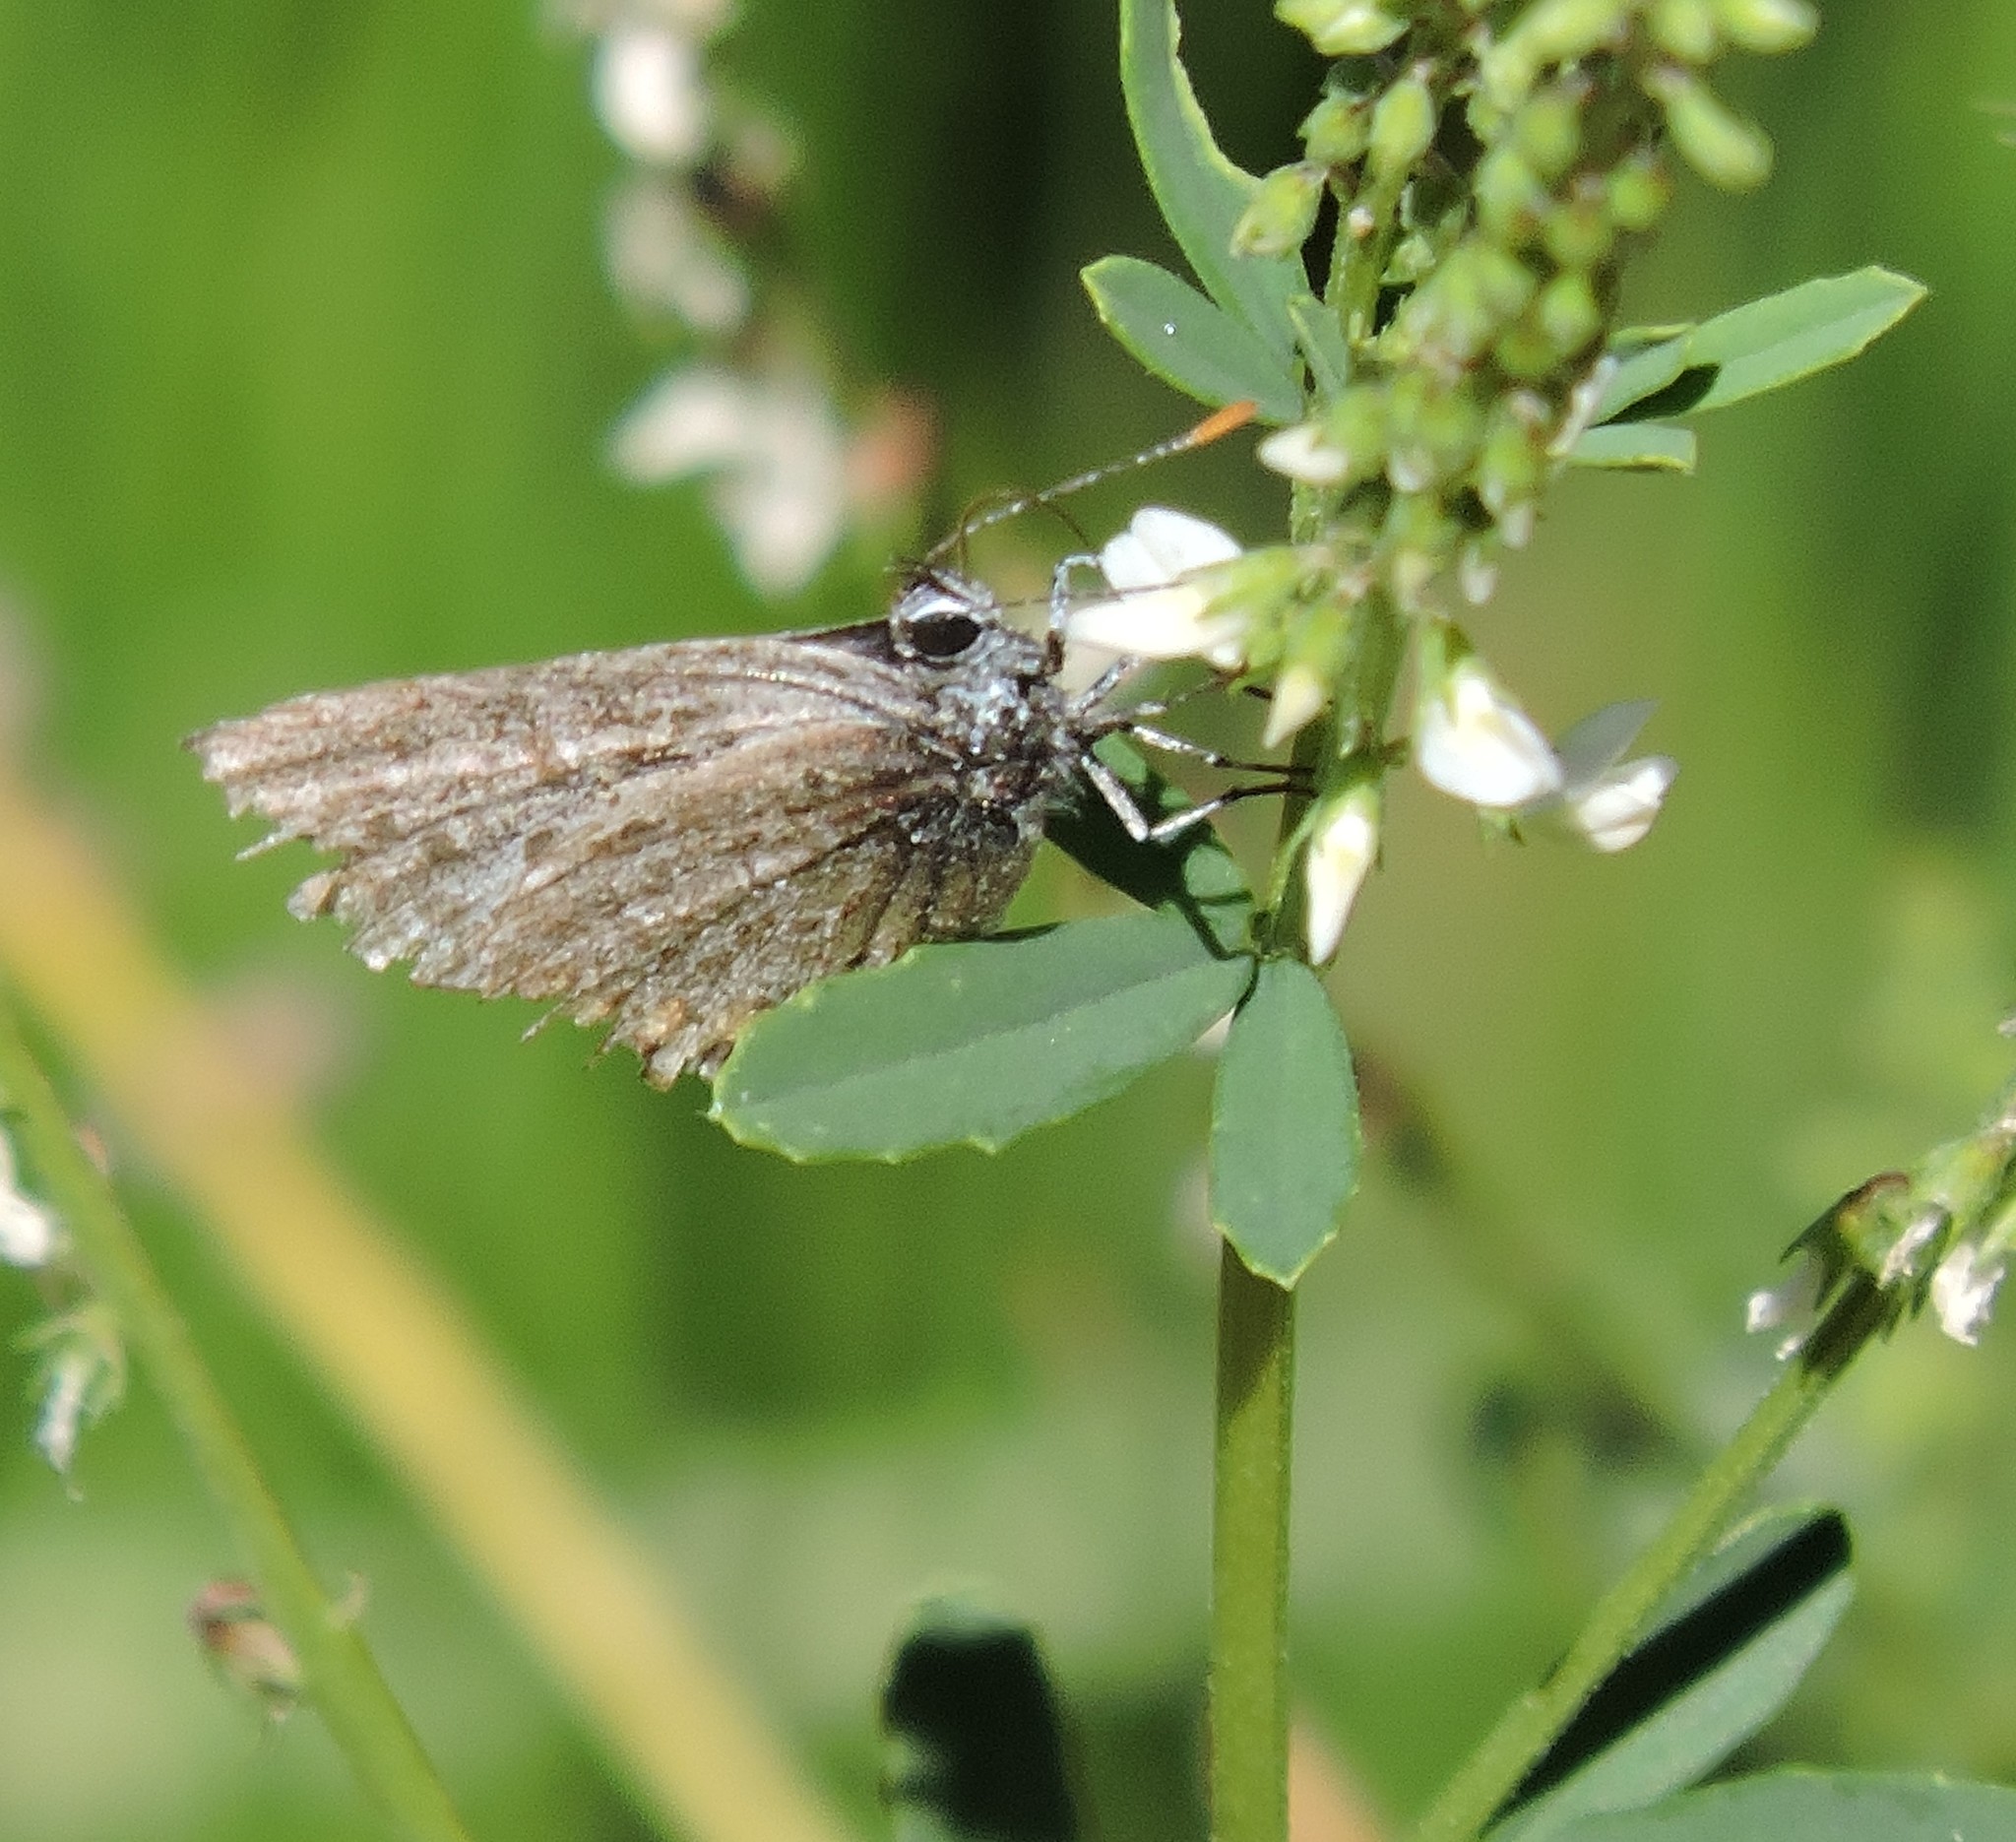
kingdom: Animalia
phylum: Arthropoda
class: Insecta
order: Lepidoptera
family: Lycaenidae
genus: Celastrina
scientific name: Celastrina ladon
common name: Spring azure
